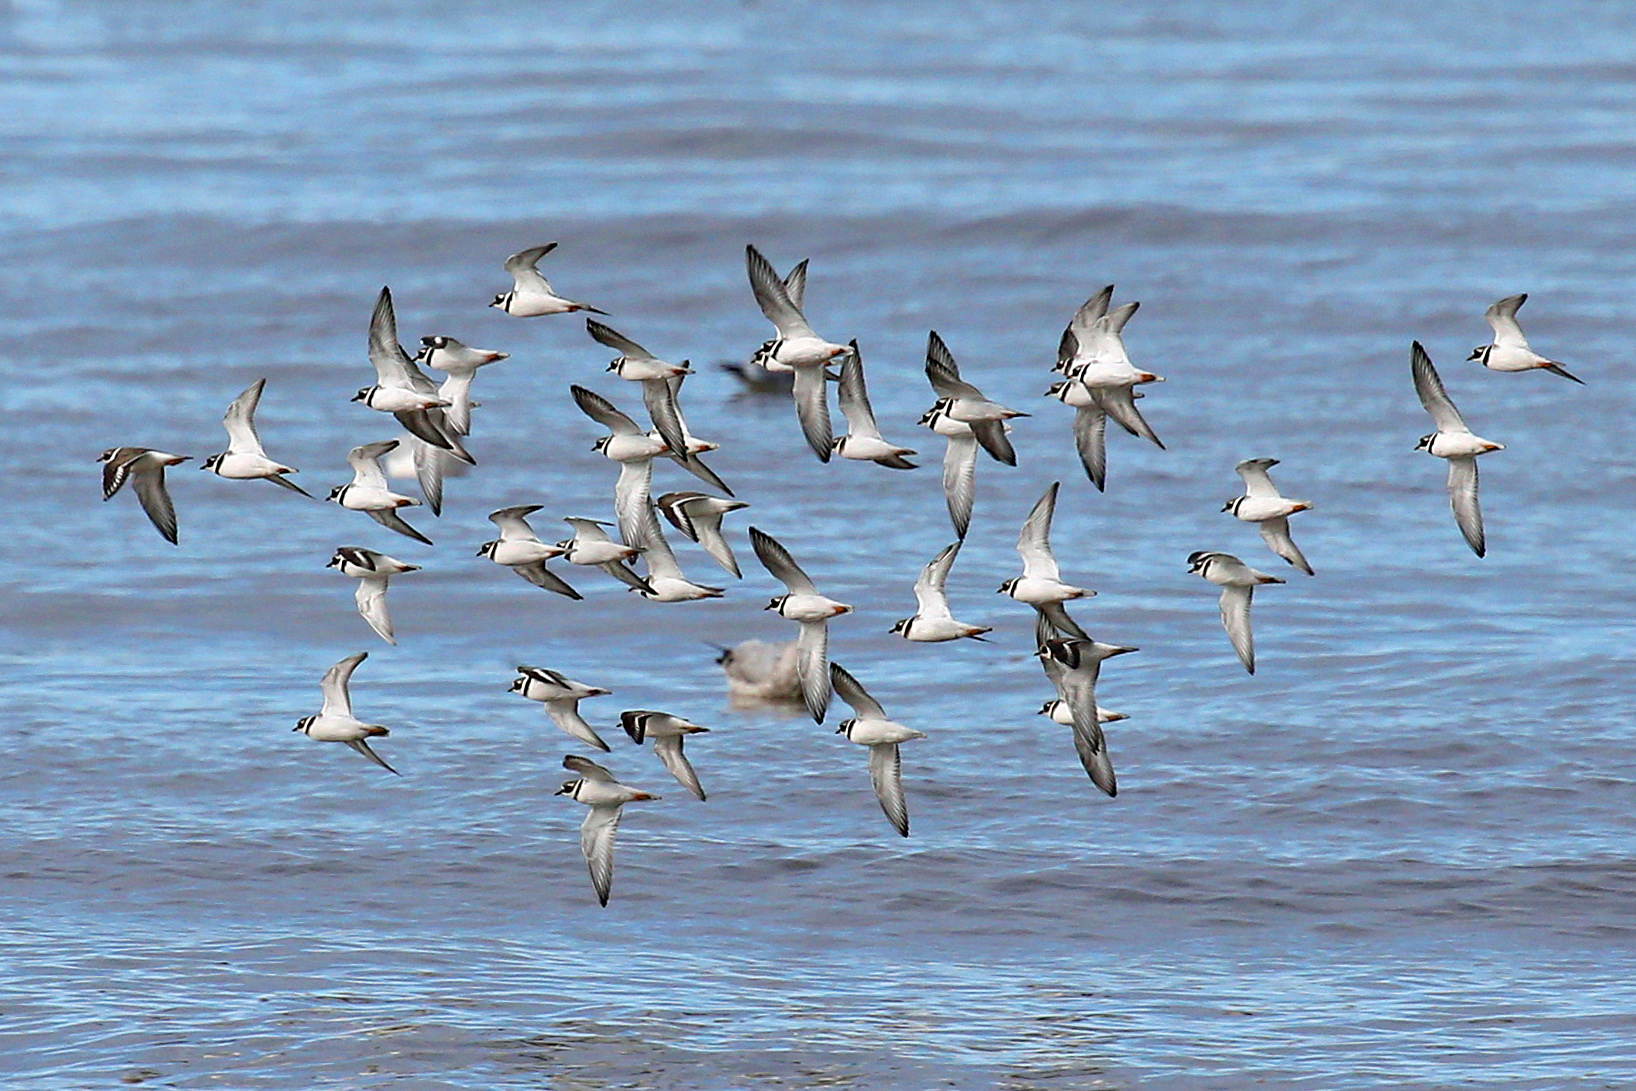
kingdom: Animalia
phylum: Chordata
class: Aves
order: Charadriiformes
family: Charadriidae
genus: Charadrius
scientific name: Charadrius hiaticula
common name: Common ringed plover
